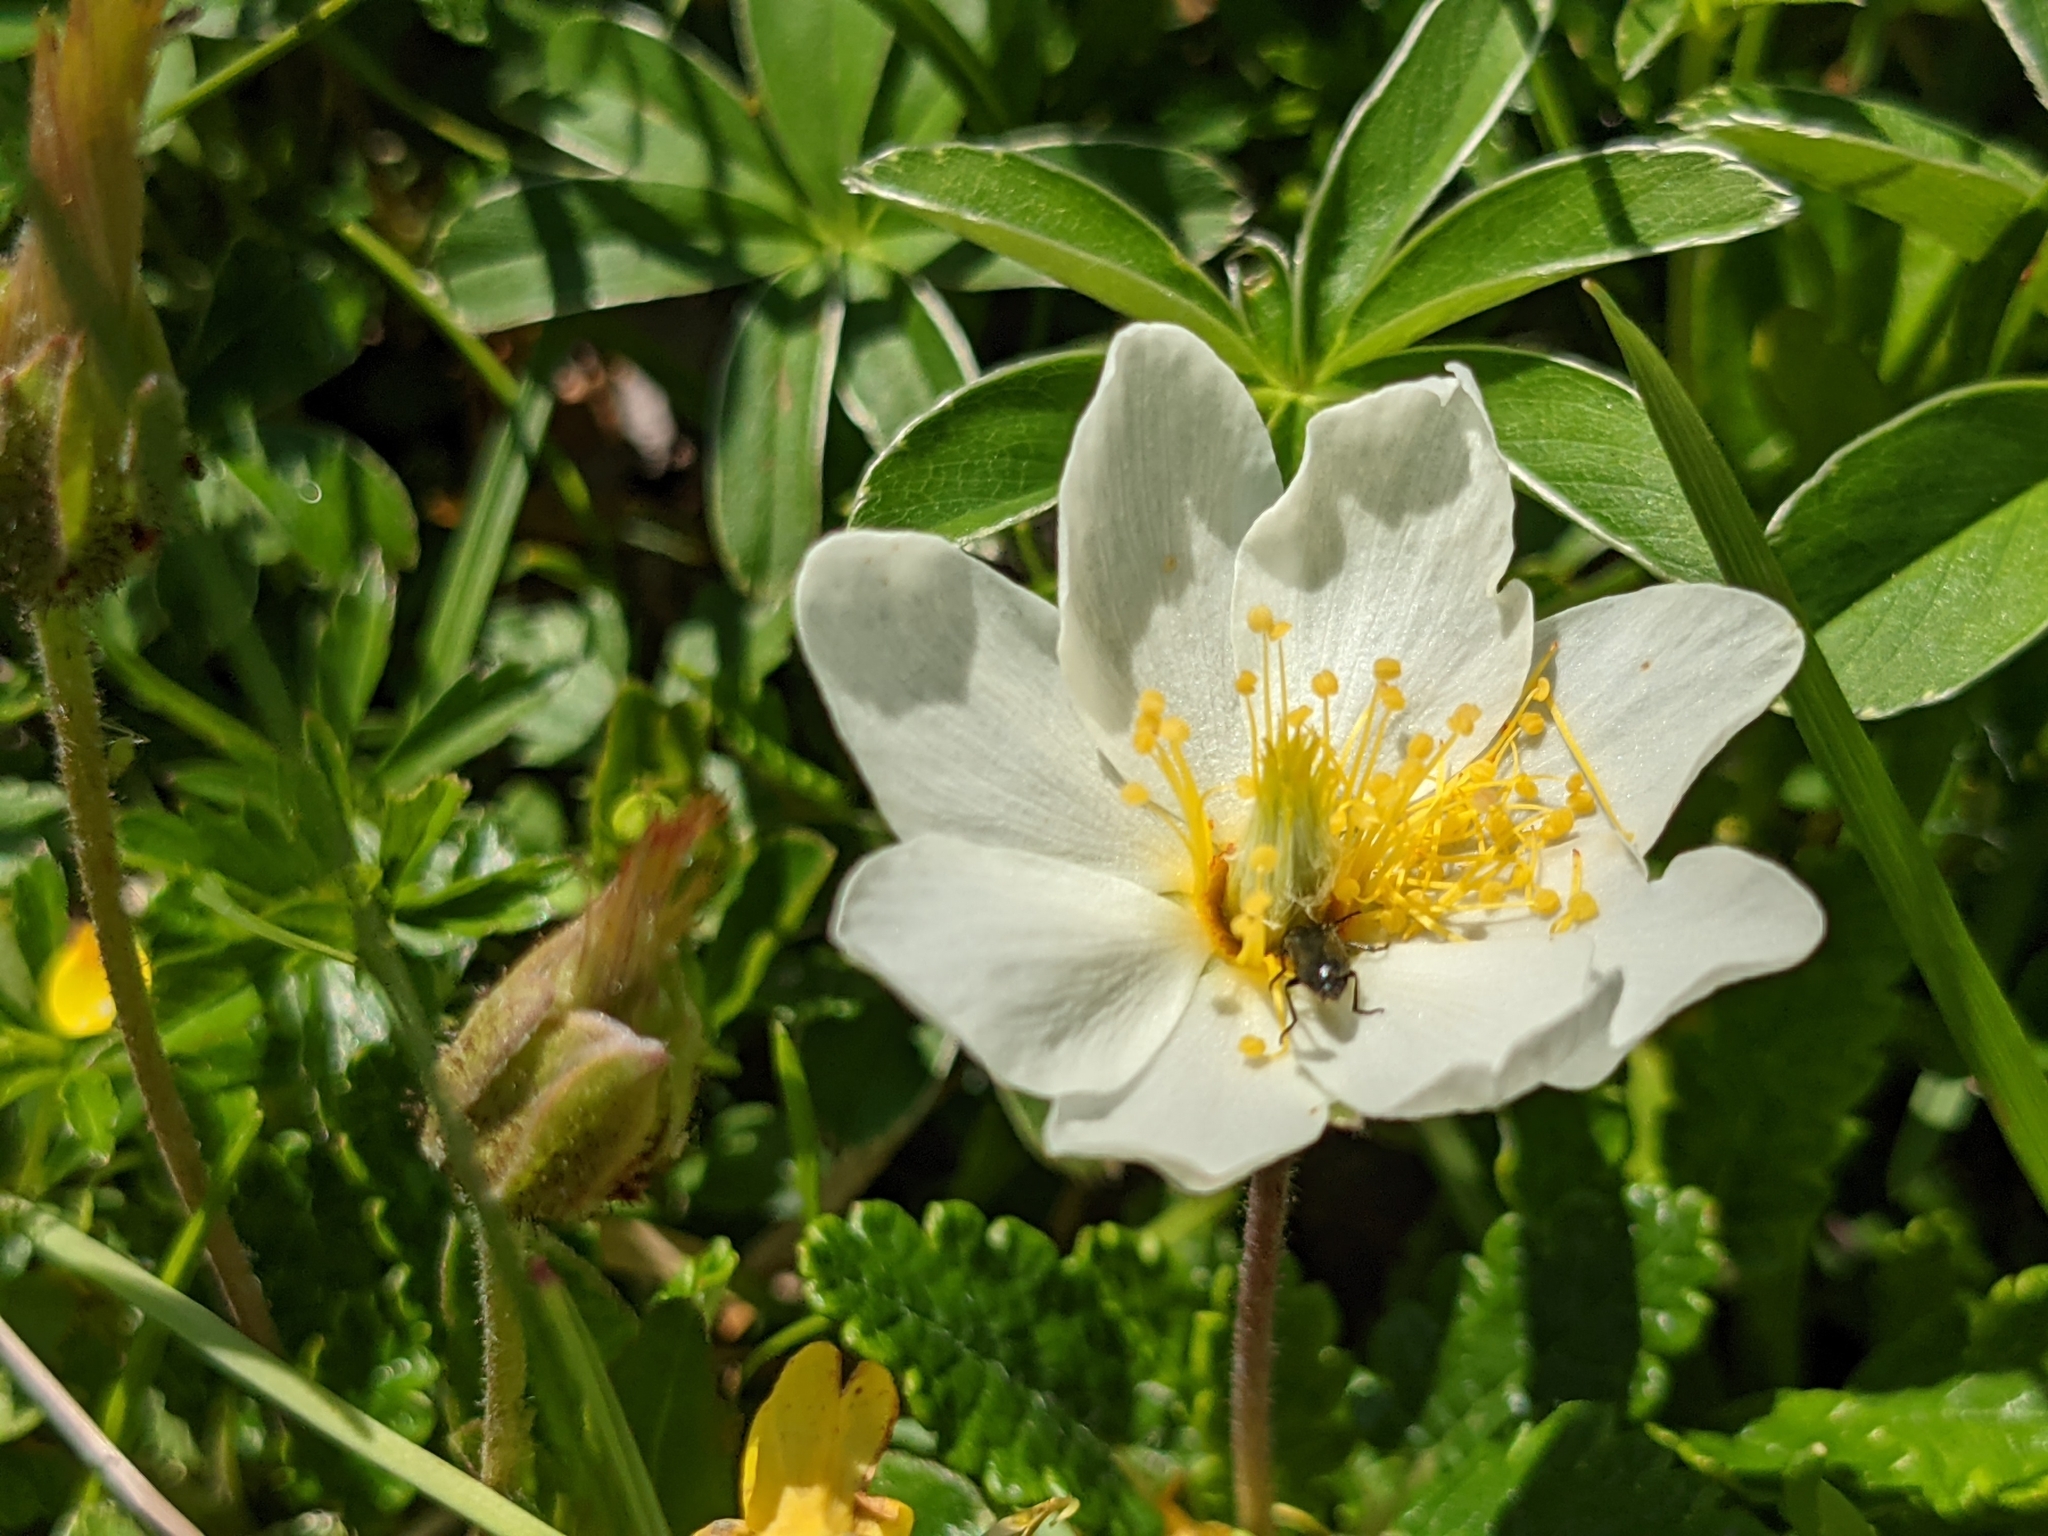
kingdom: Plantae
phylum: Tracheophyta
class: Magnoliopsida
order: Rosales
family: Rosaceae
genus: Dryas
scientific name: Dryas octopetala
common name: Eight-petal mountain-avens
